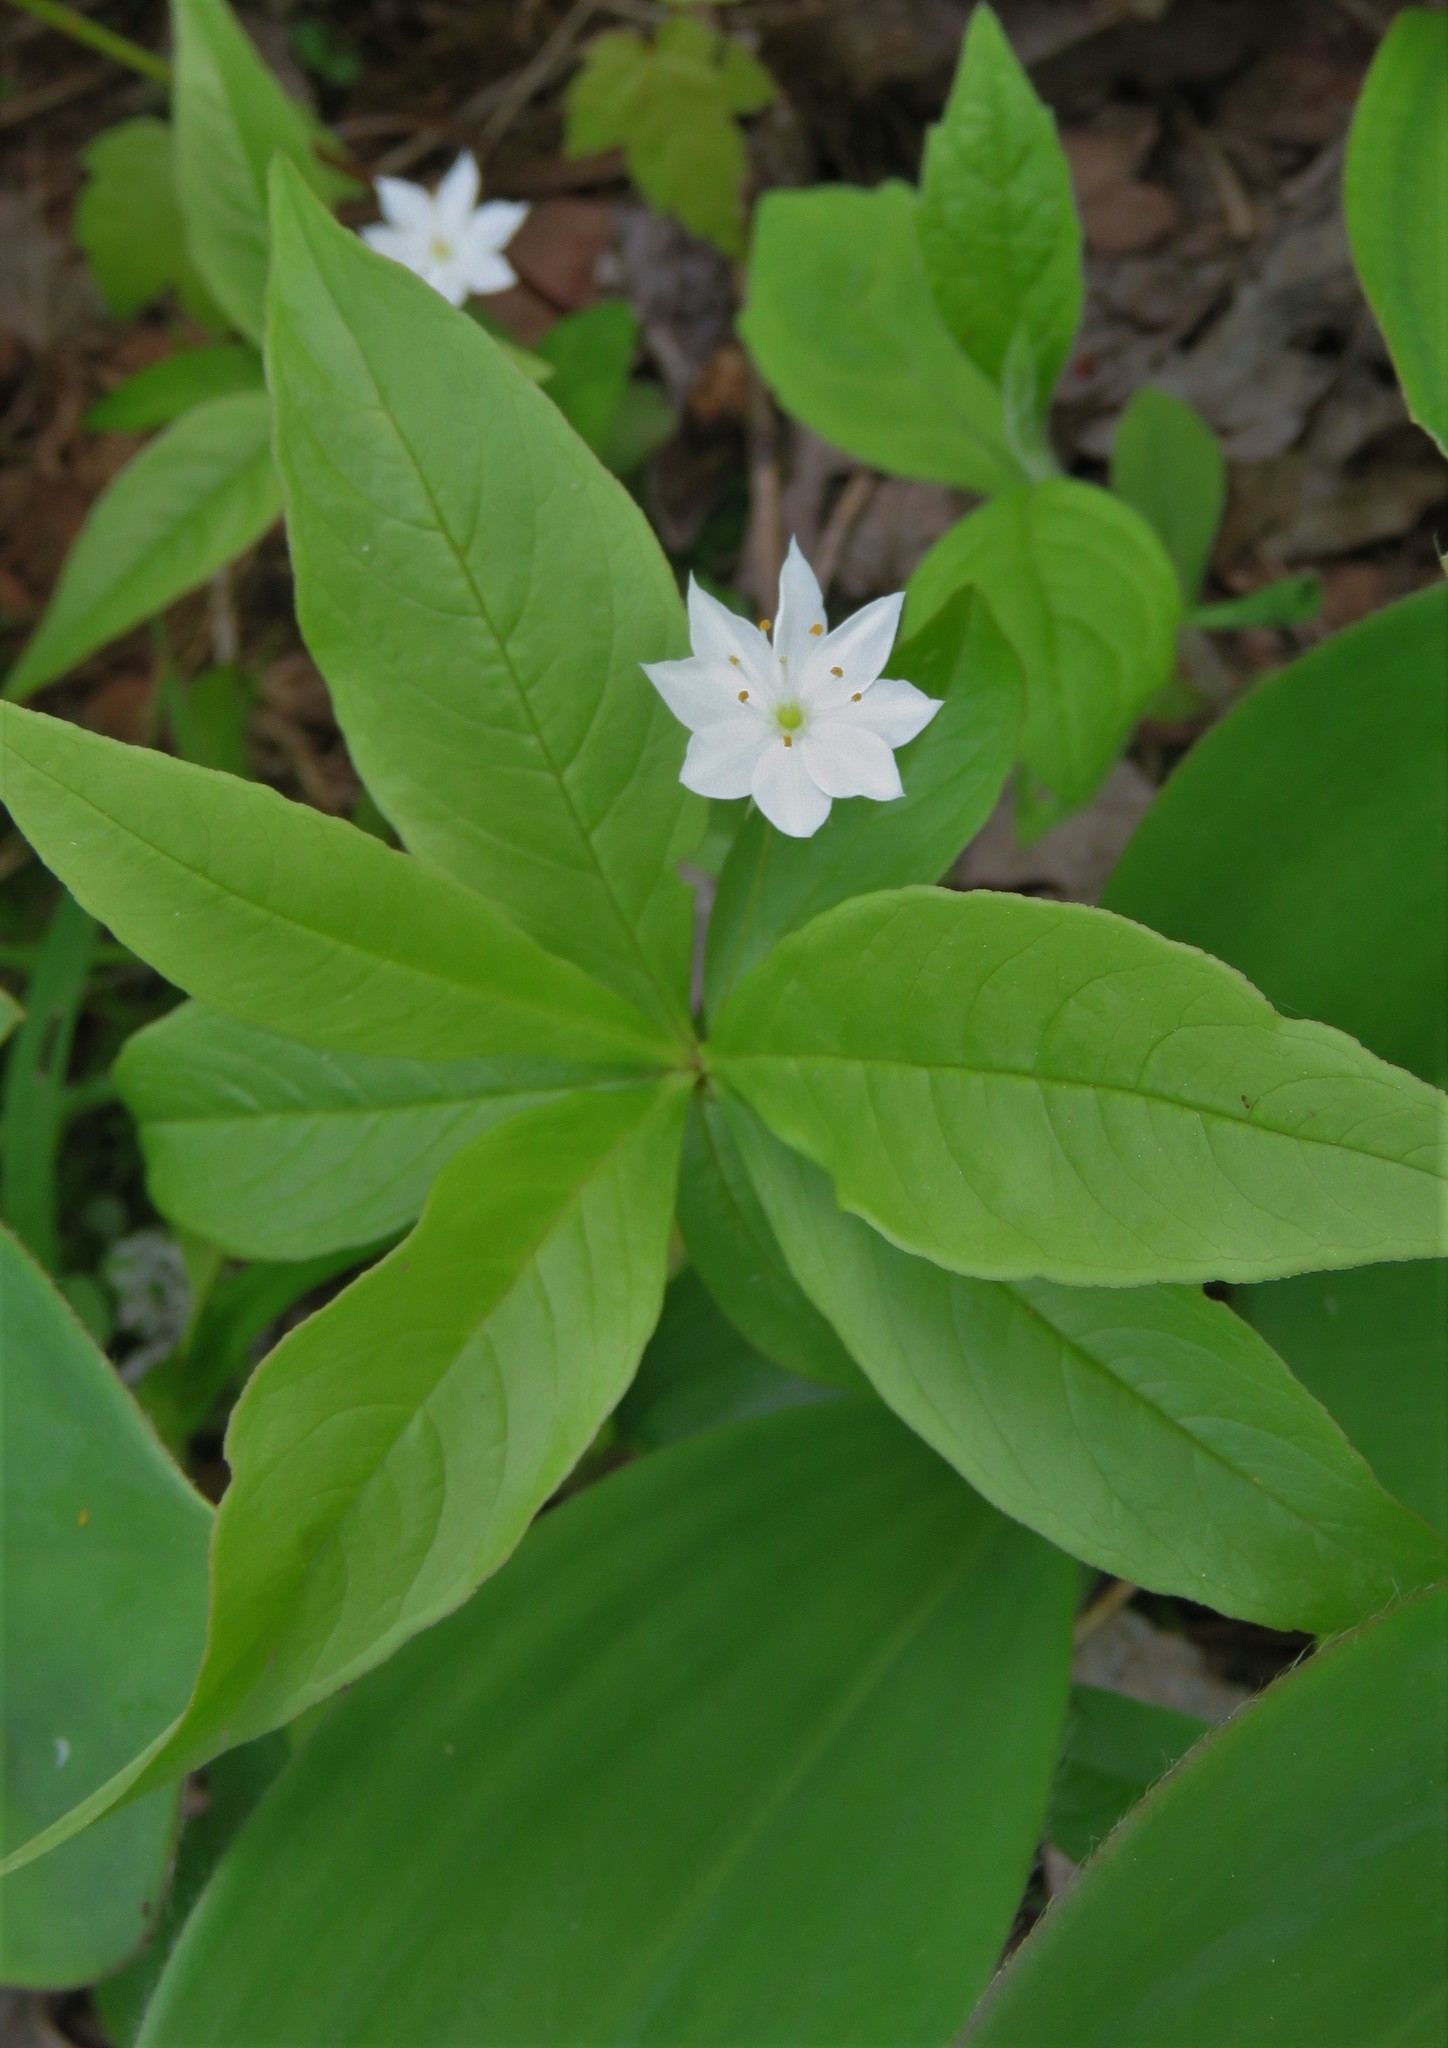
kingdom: Plantae
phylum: Tracheophyta
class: Magnoliopsida
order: Ericales
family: Primulaceae
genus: Lysimachia
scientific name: Lysimachia borealis
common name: American starflower
